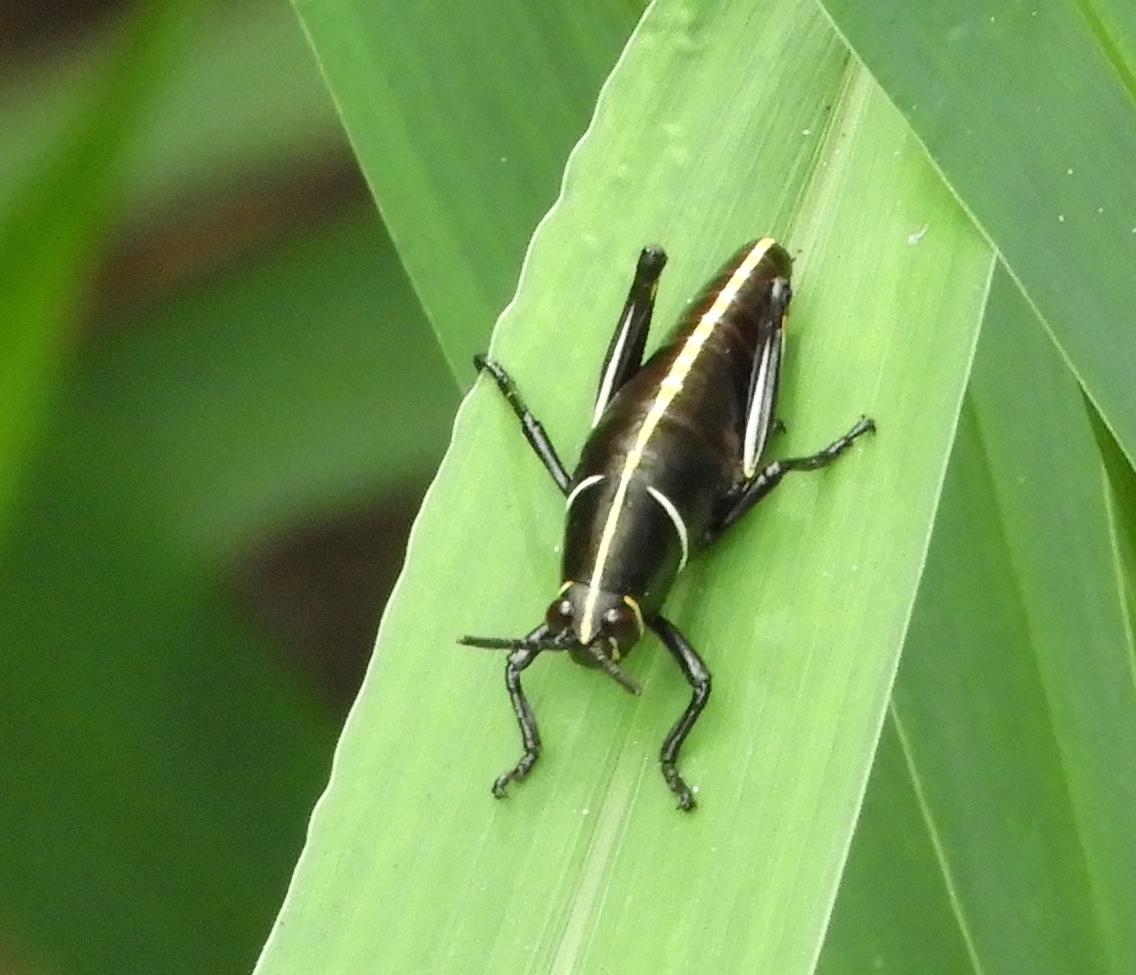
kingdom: Animalia
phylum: Arthropoda
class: Insecta
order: Orthoptera
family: Romaleidae
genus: Romalea
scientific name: Romalea
